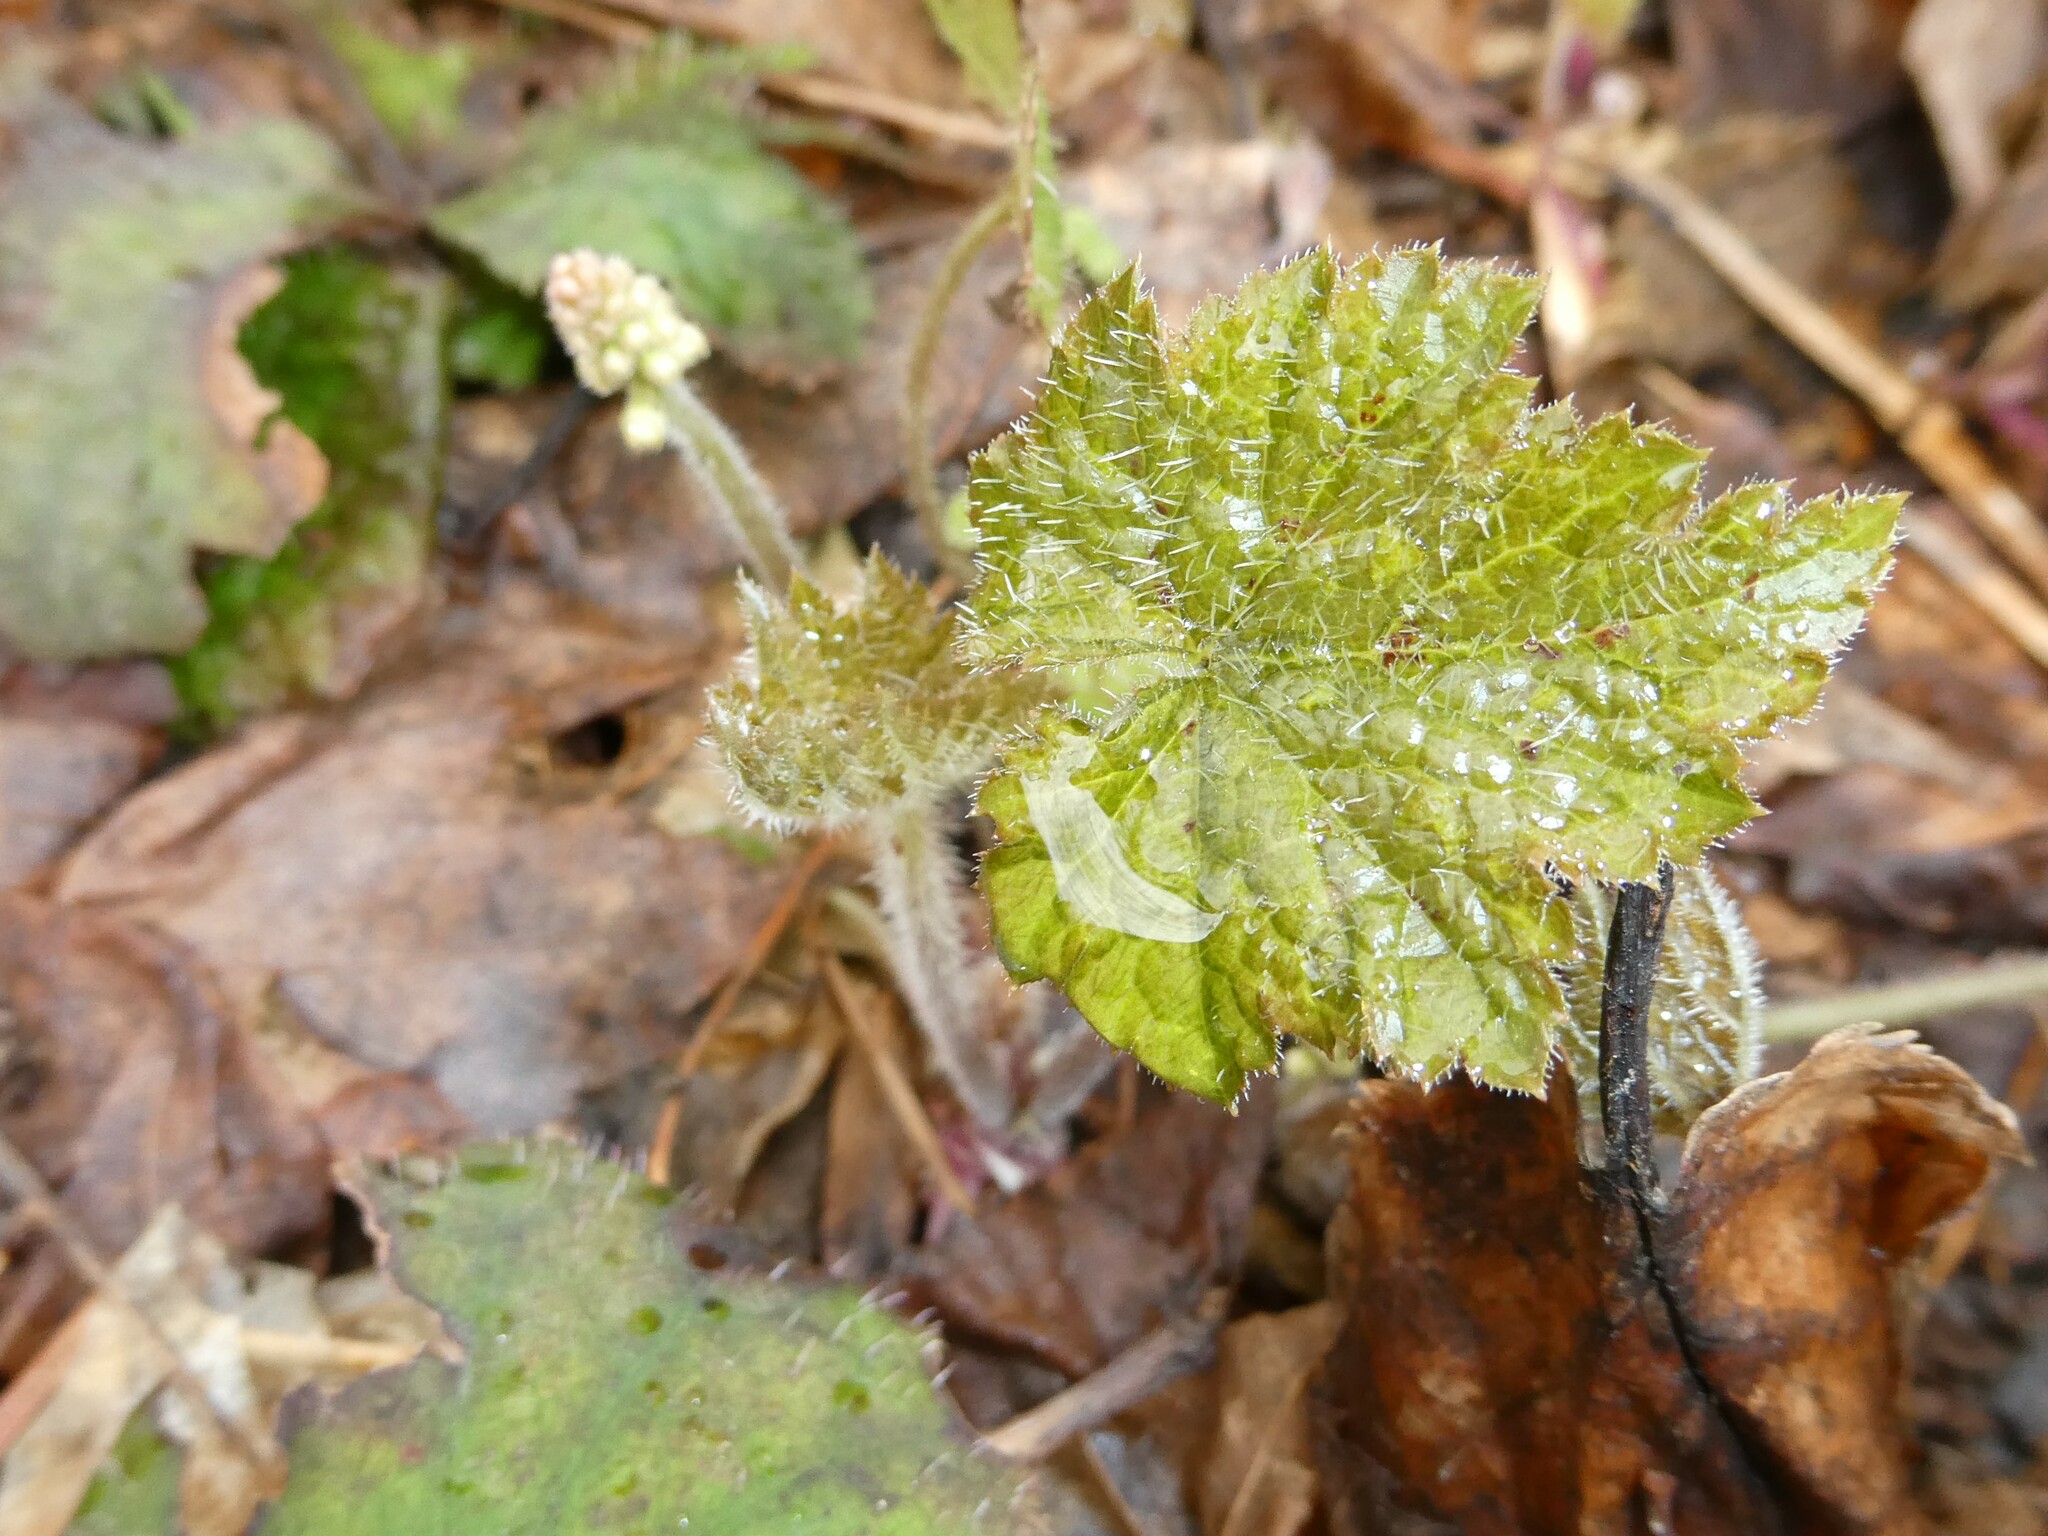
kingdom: Plantae
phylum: Tracheophyta
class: Magnoliopsida
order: Saxifragales
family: Saxifragaceae
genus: Tiarella
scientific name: Tiarella stolonifera
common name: Stoloniferous foamflower
